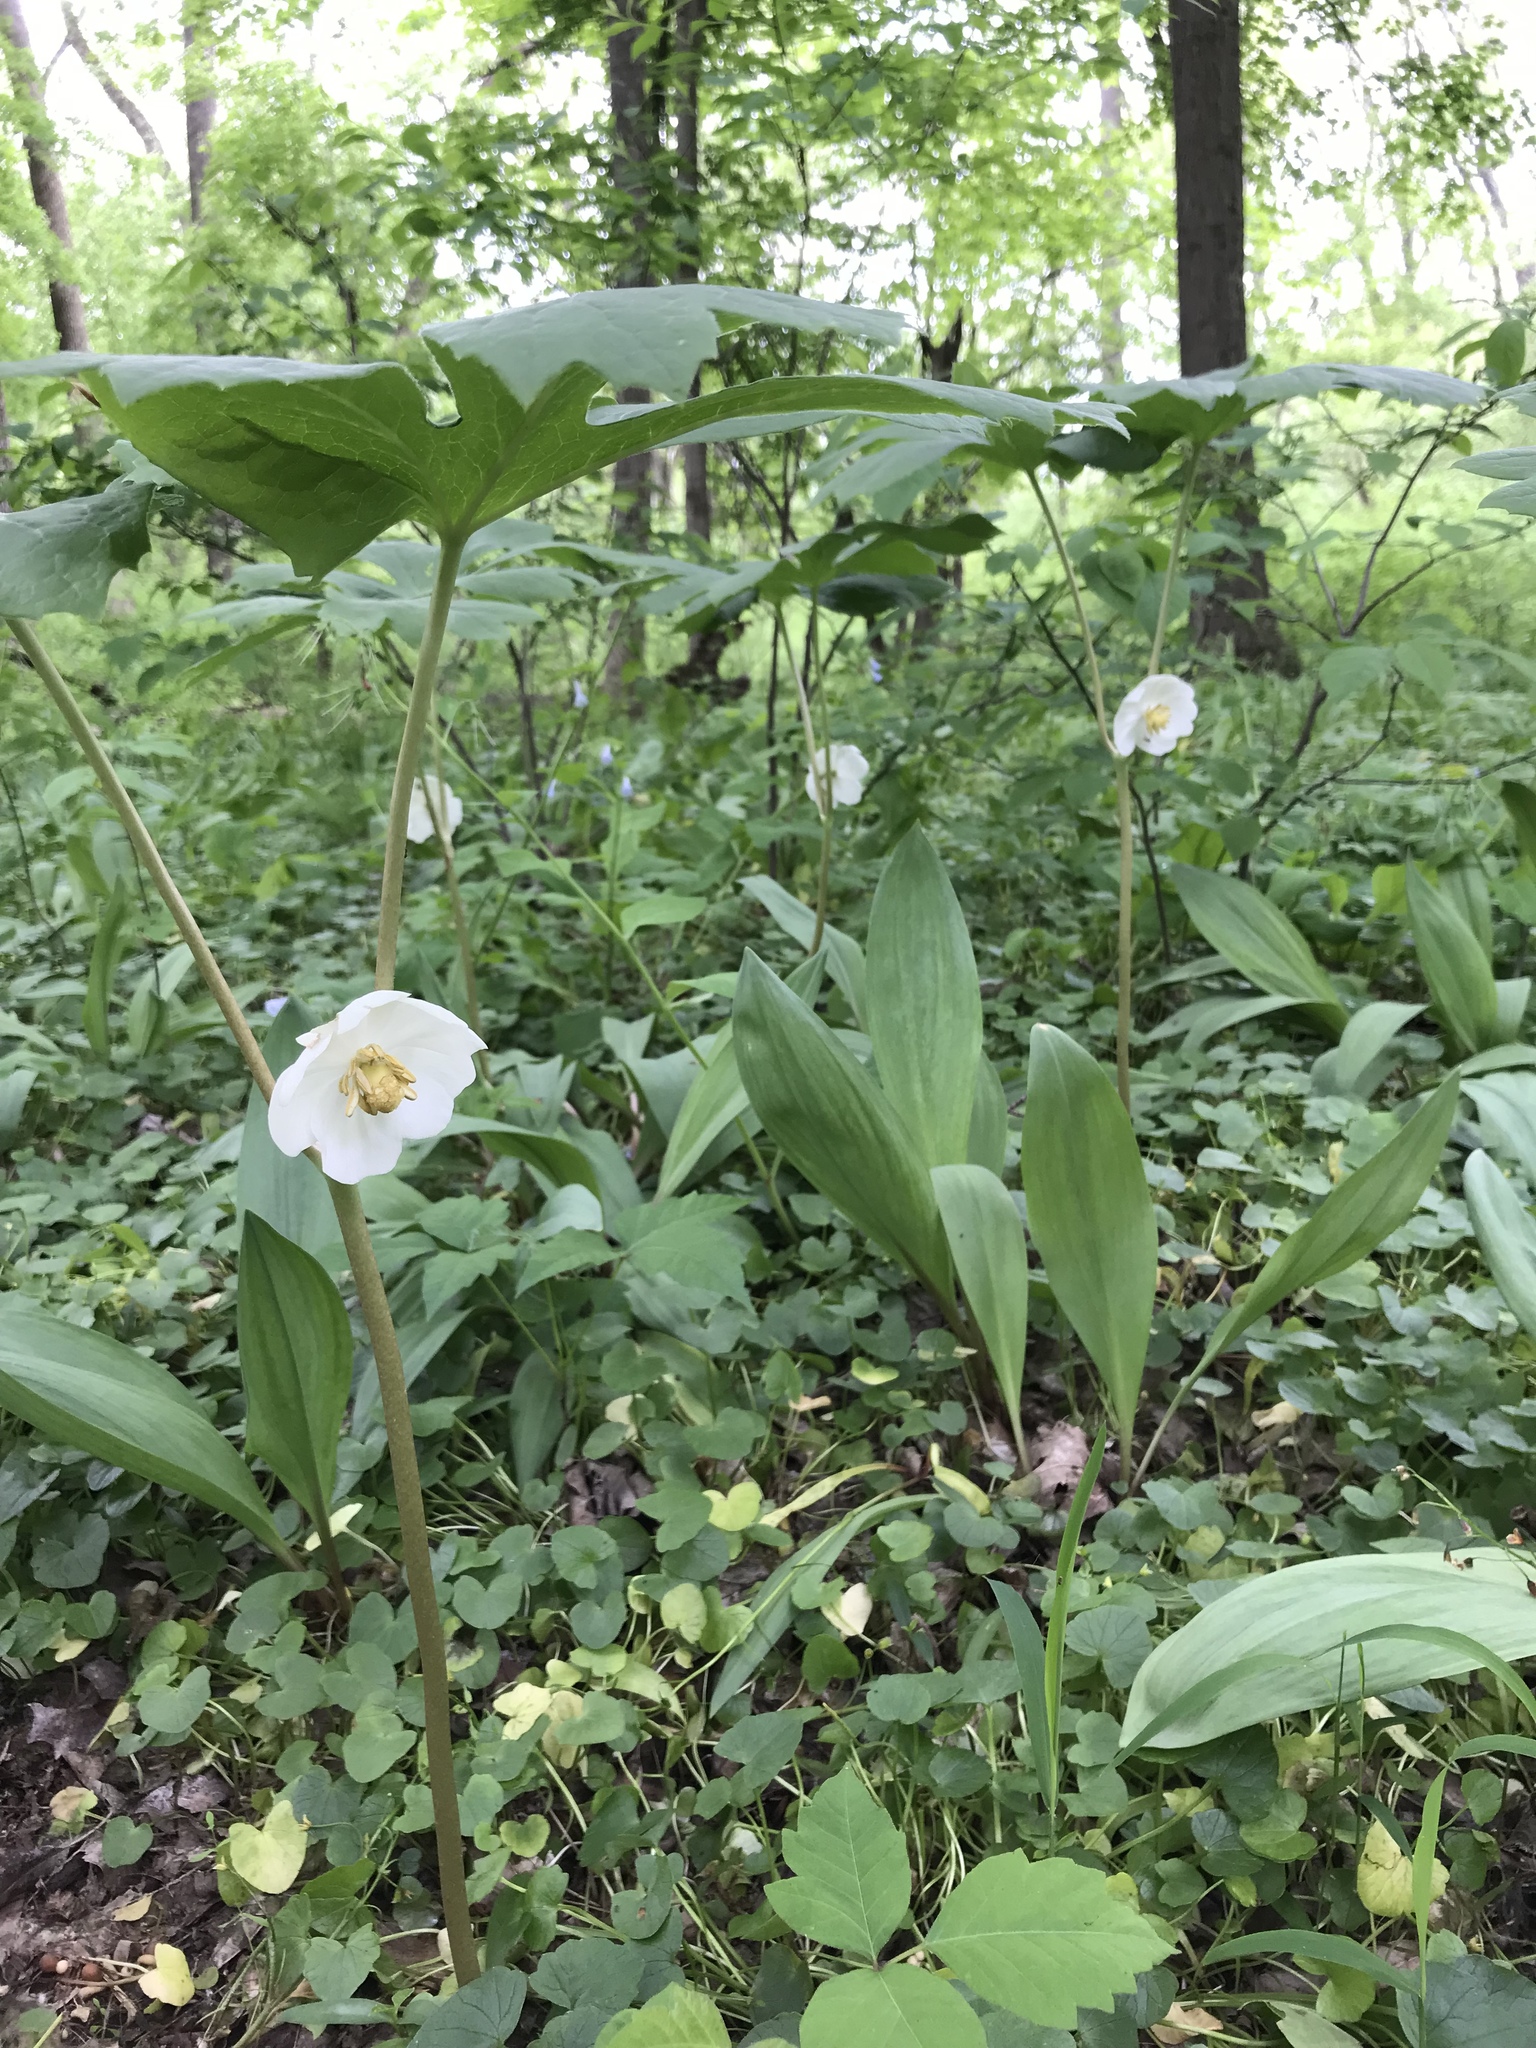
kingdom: Plantae
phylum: Tracheophyta
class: Magnoliopsida
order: Ranunculales
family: Berberidaceae
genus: Podophyllum
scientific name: Podophyllum peltatum
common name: Wild mandrake
